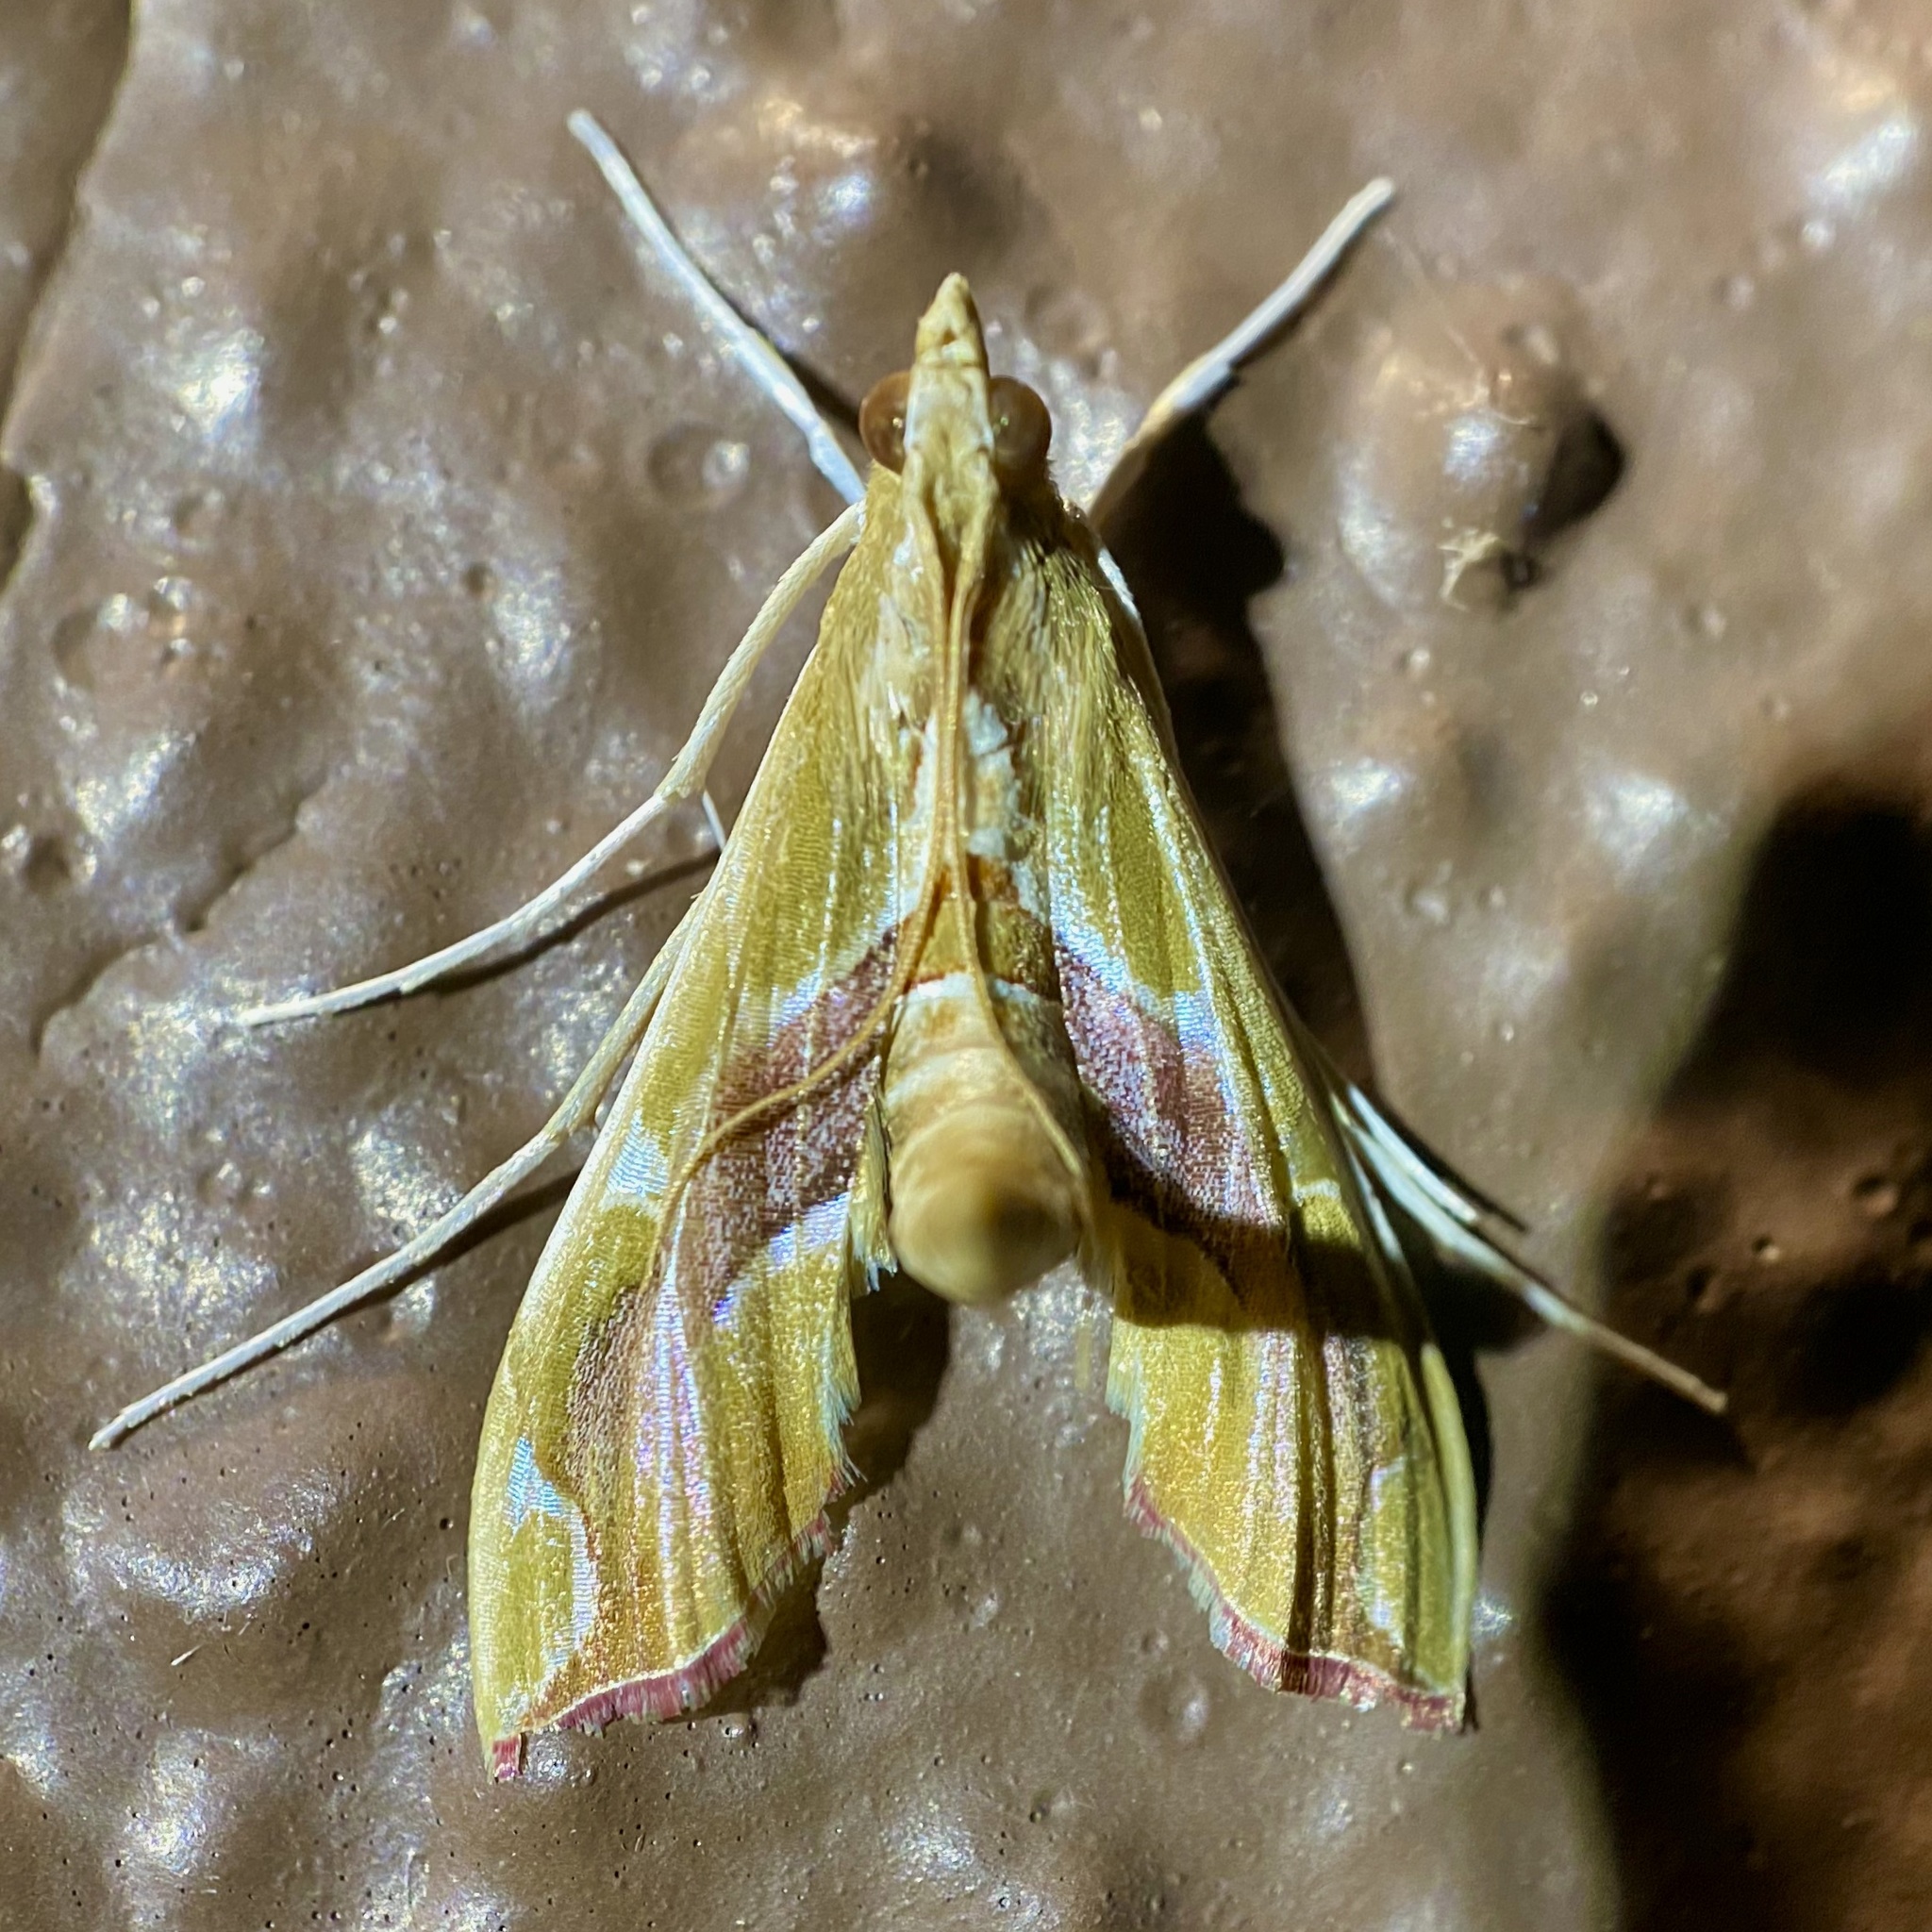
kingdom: Animalia
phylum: Arthropoda
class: Insecta
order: Lepidoptera
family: Crambidae
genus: Agathodes
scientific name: Agathodes monstralis
